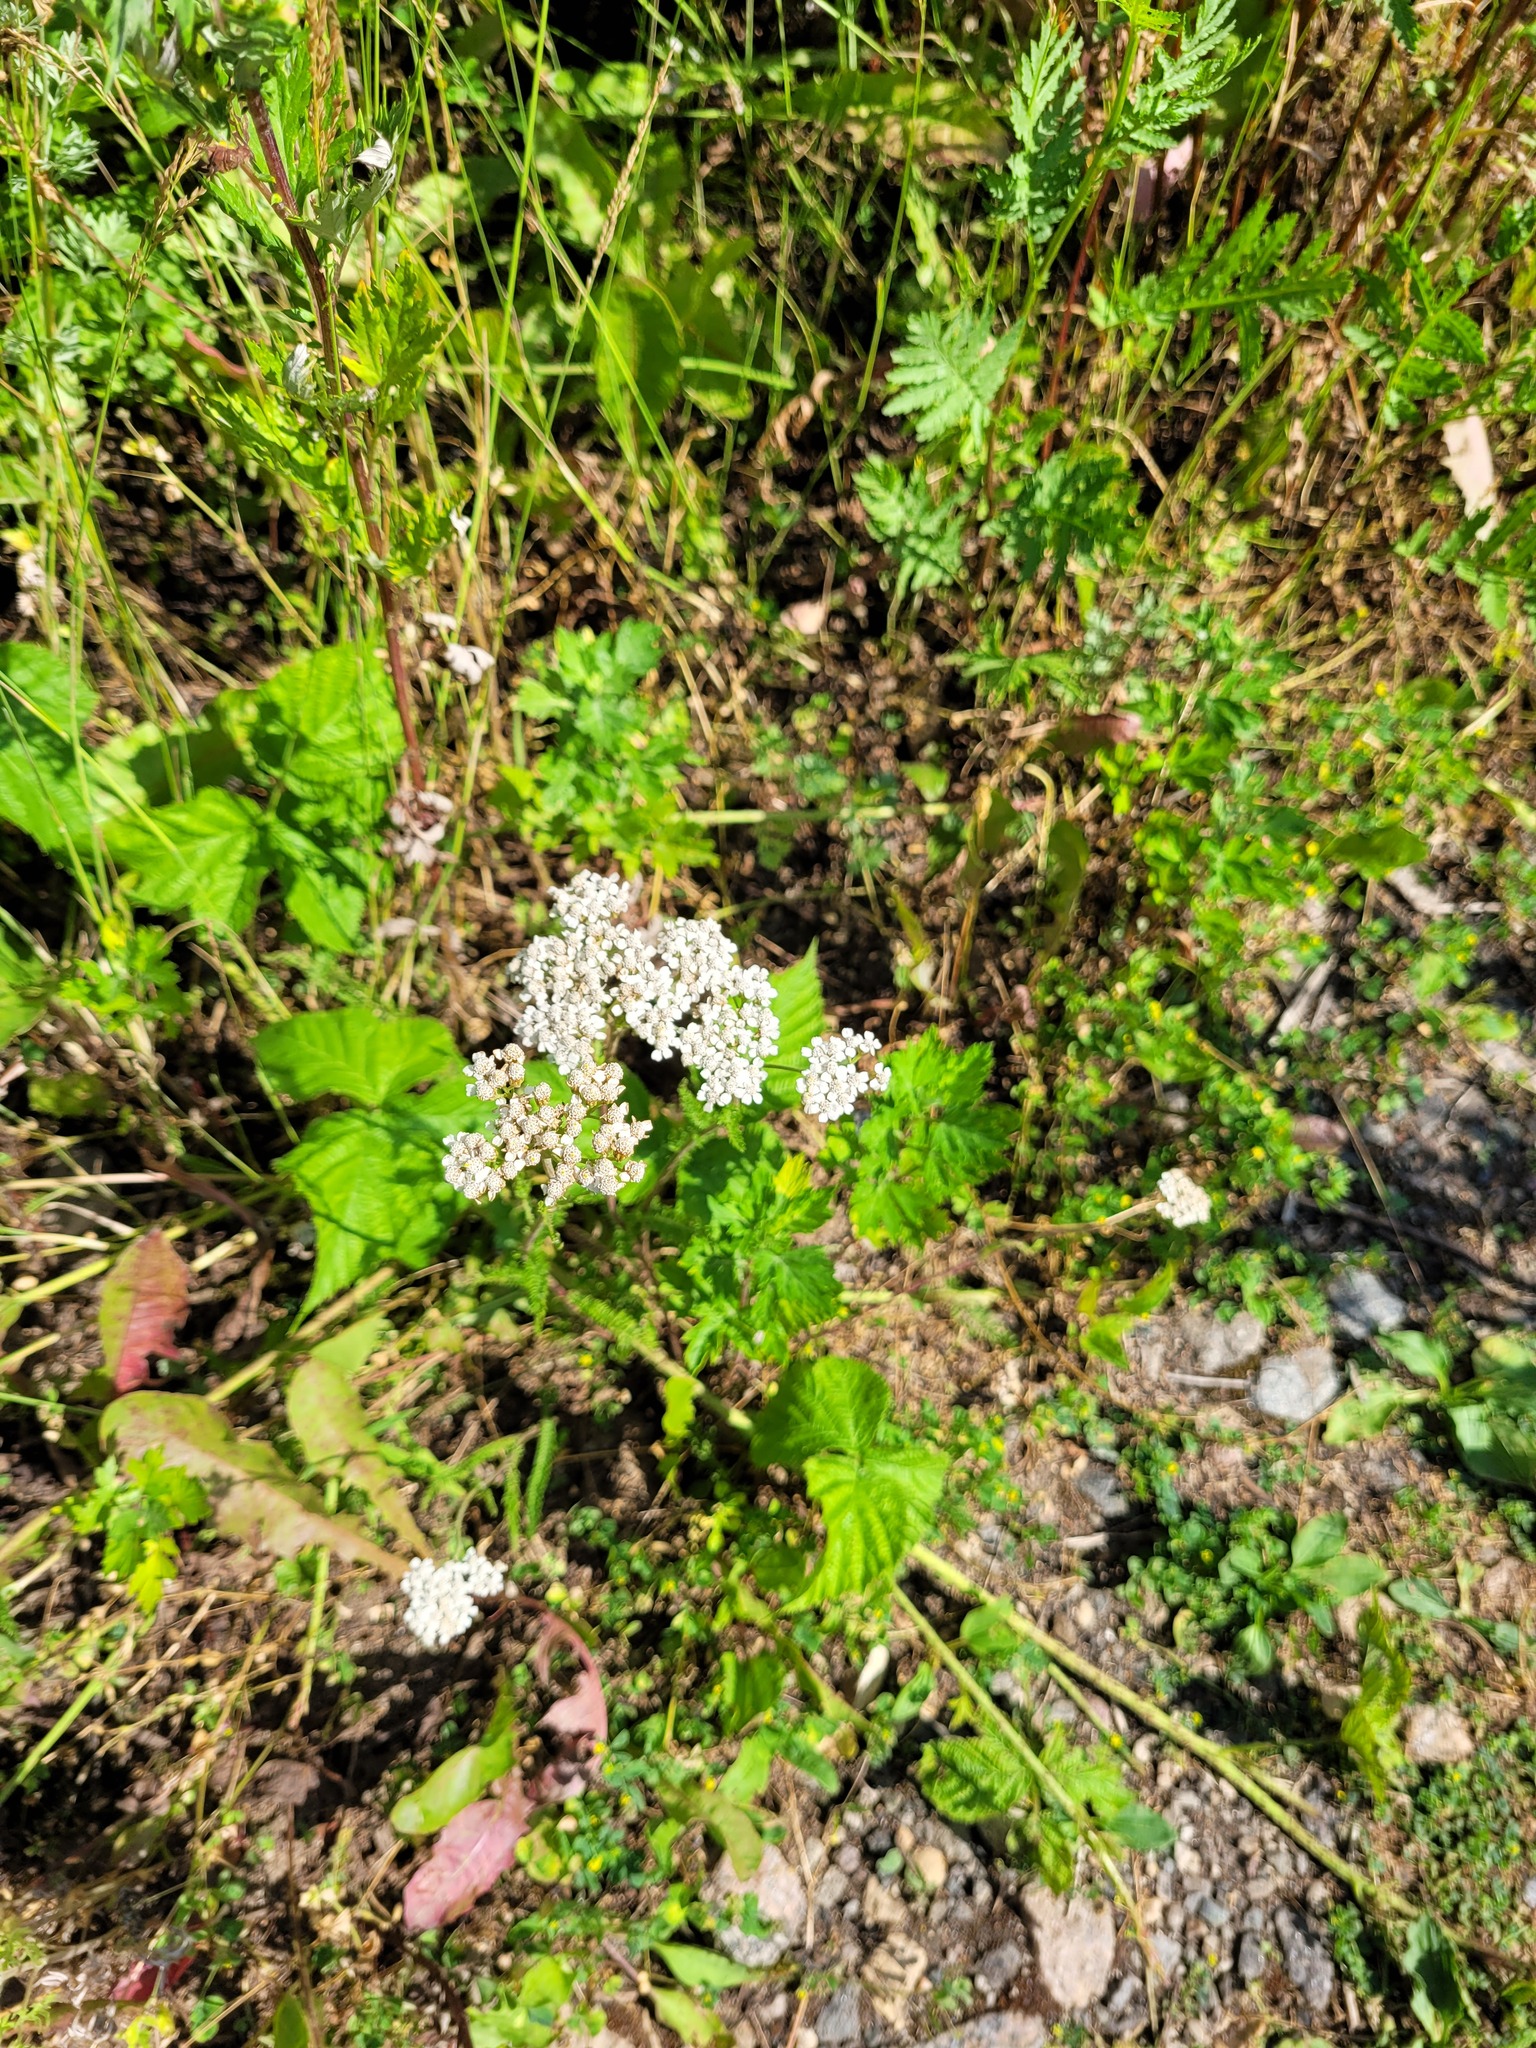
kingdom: Plantae
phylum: Tracheophyta
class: Magnoliopsida
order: Asterales
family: Asteraceae
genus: Achillea
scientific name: Achillea millefolium
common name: Yarrow
